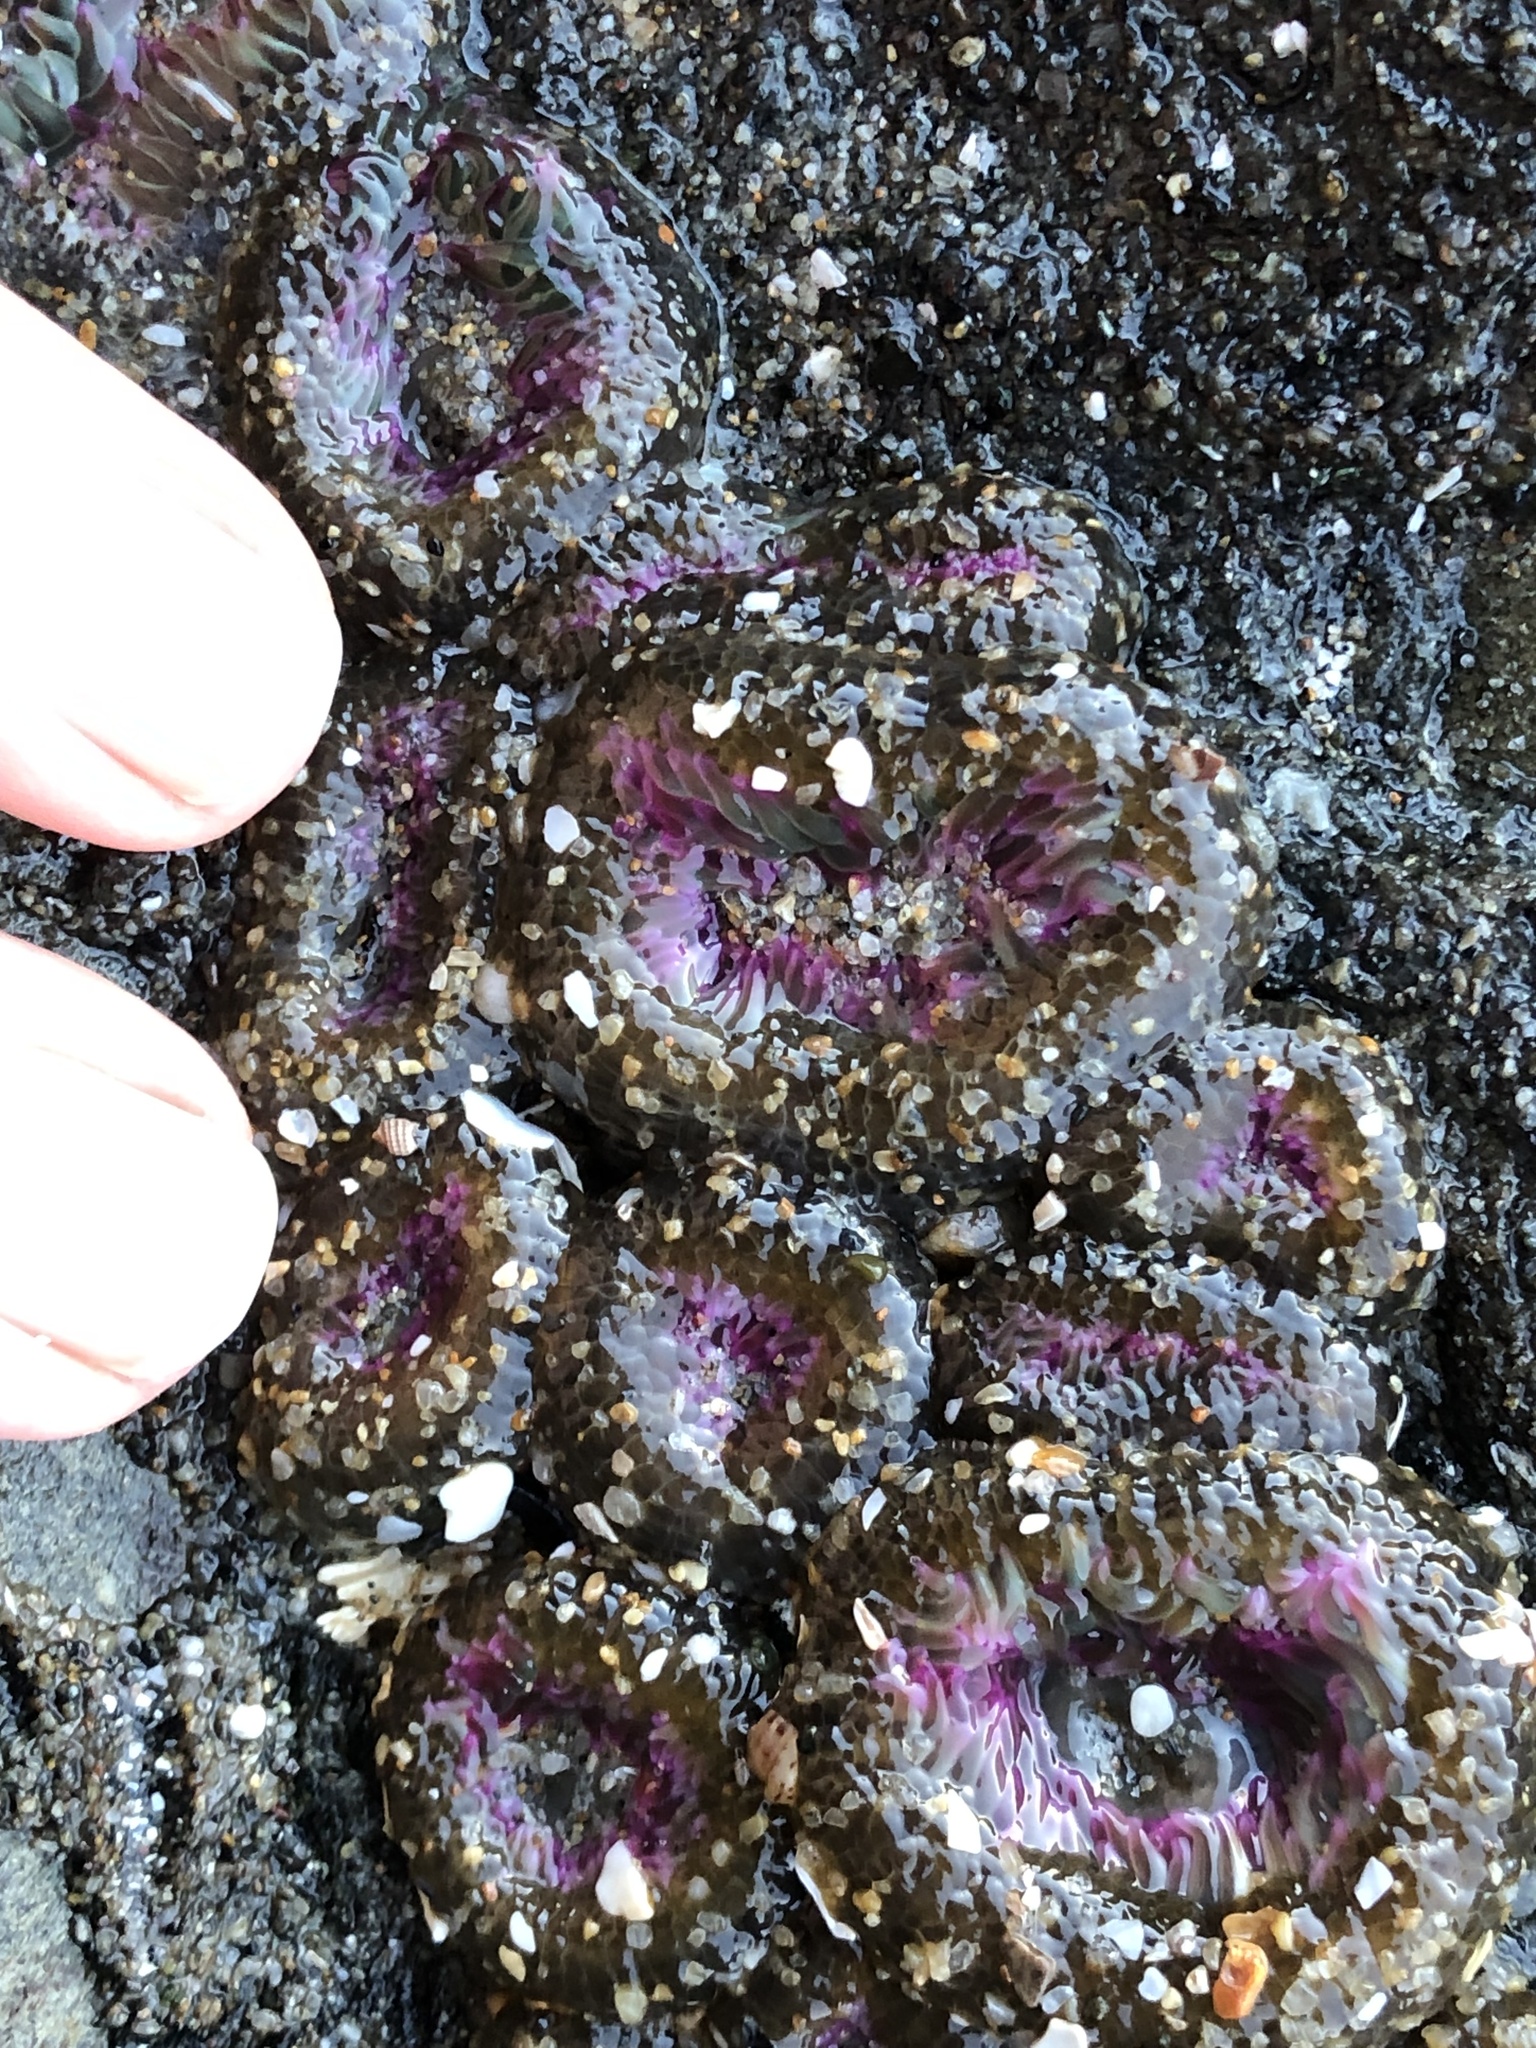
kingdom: Animalia
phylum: Cnidaria
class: Anthozoa
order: Actiniaria
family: Actiniidae
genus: Anthopleura
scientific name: Anthopleura elegantissima
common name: Clonal anemone
